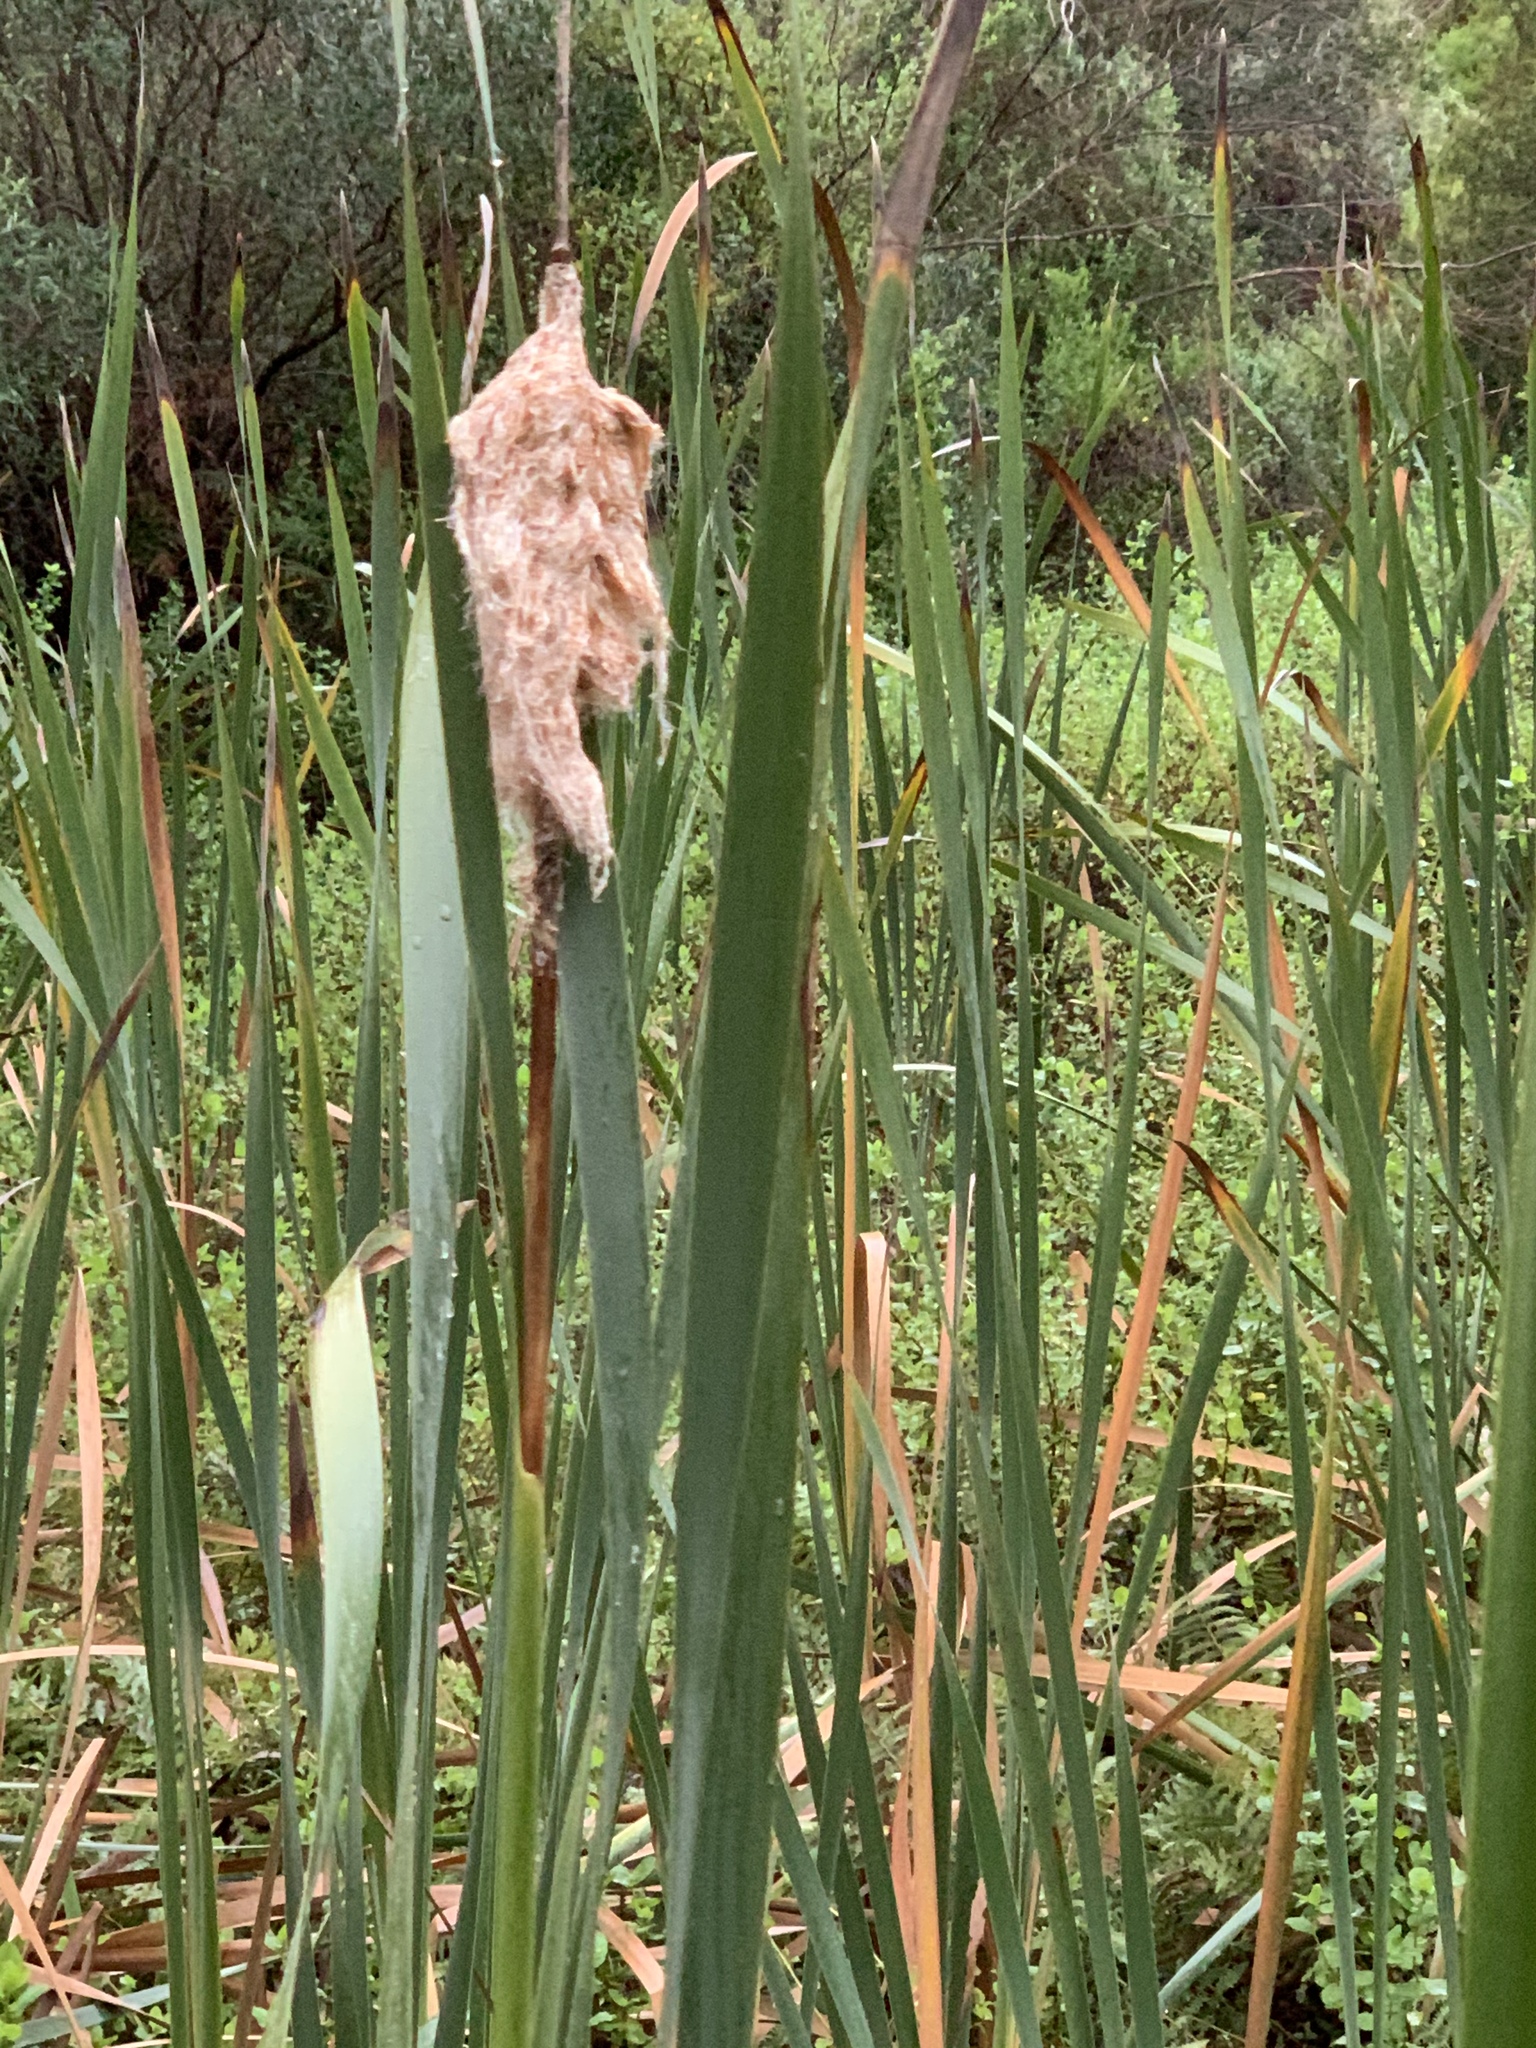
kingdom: Plantae
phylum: Tracheophyta
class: Liliopsida
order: Poales
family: Typhaceae
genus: Typha
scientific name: Typha capensis
